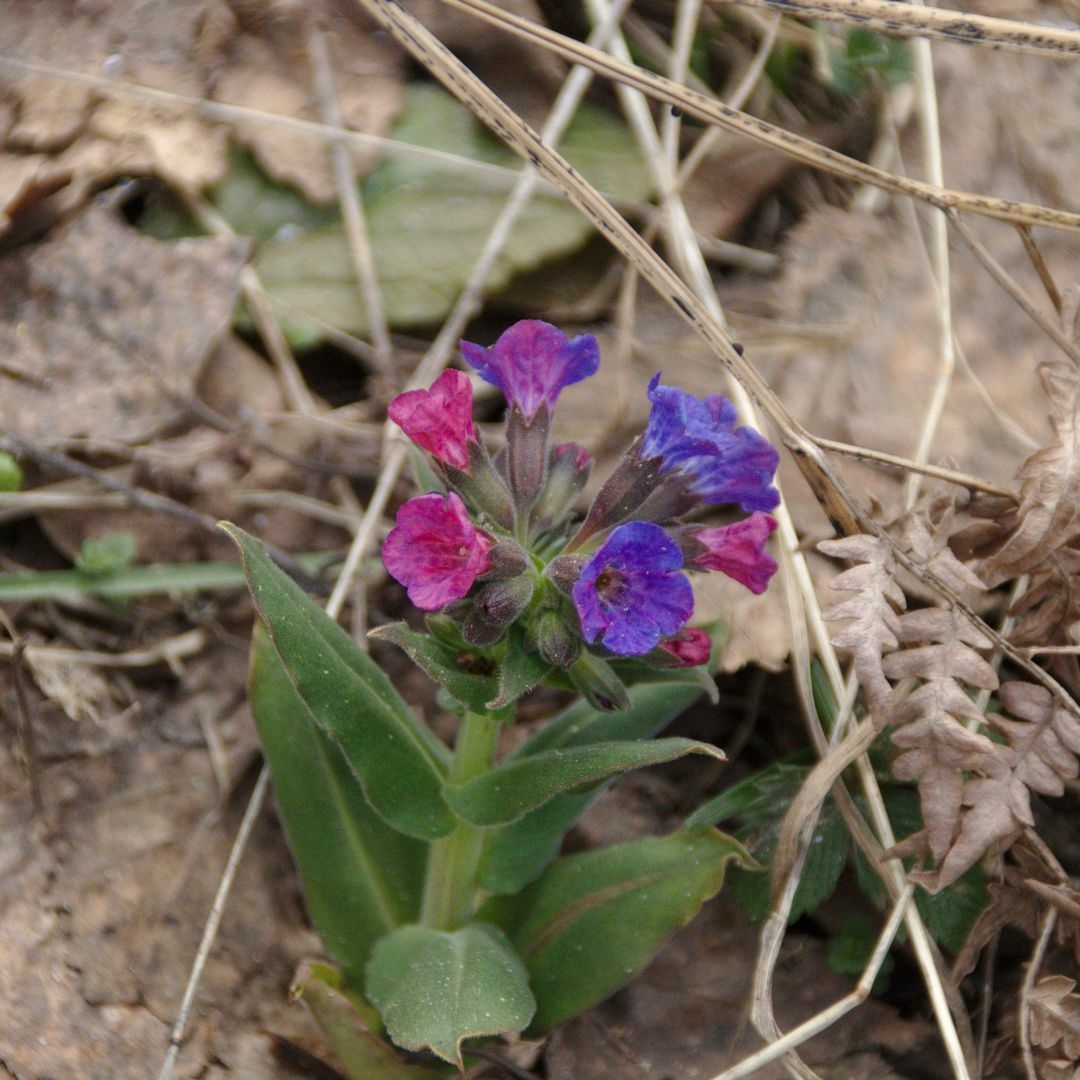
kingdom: Plantae
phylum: Tracheophyta
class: Magnoliopsida
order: Boraginales
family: Boraginaceae
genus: Pulmonaria
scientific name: Pulmonaria mollis
